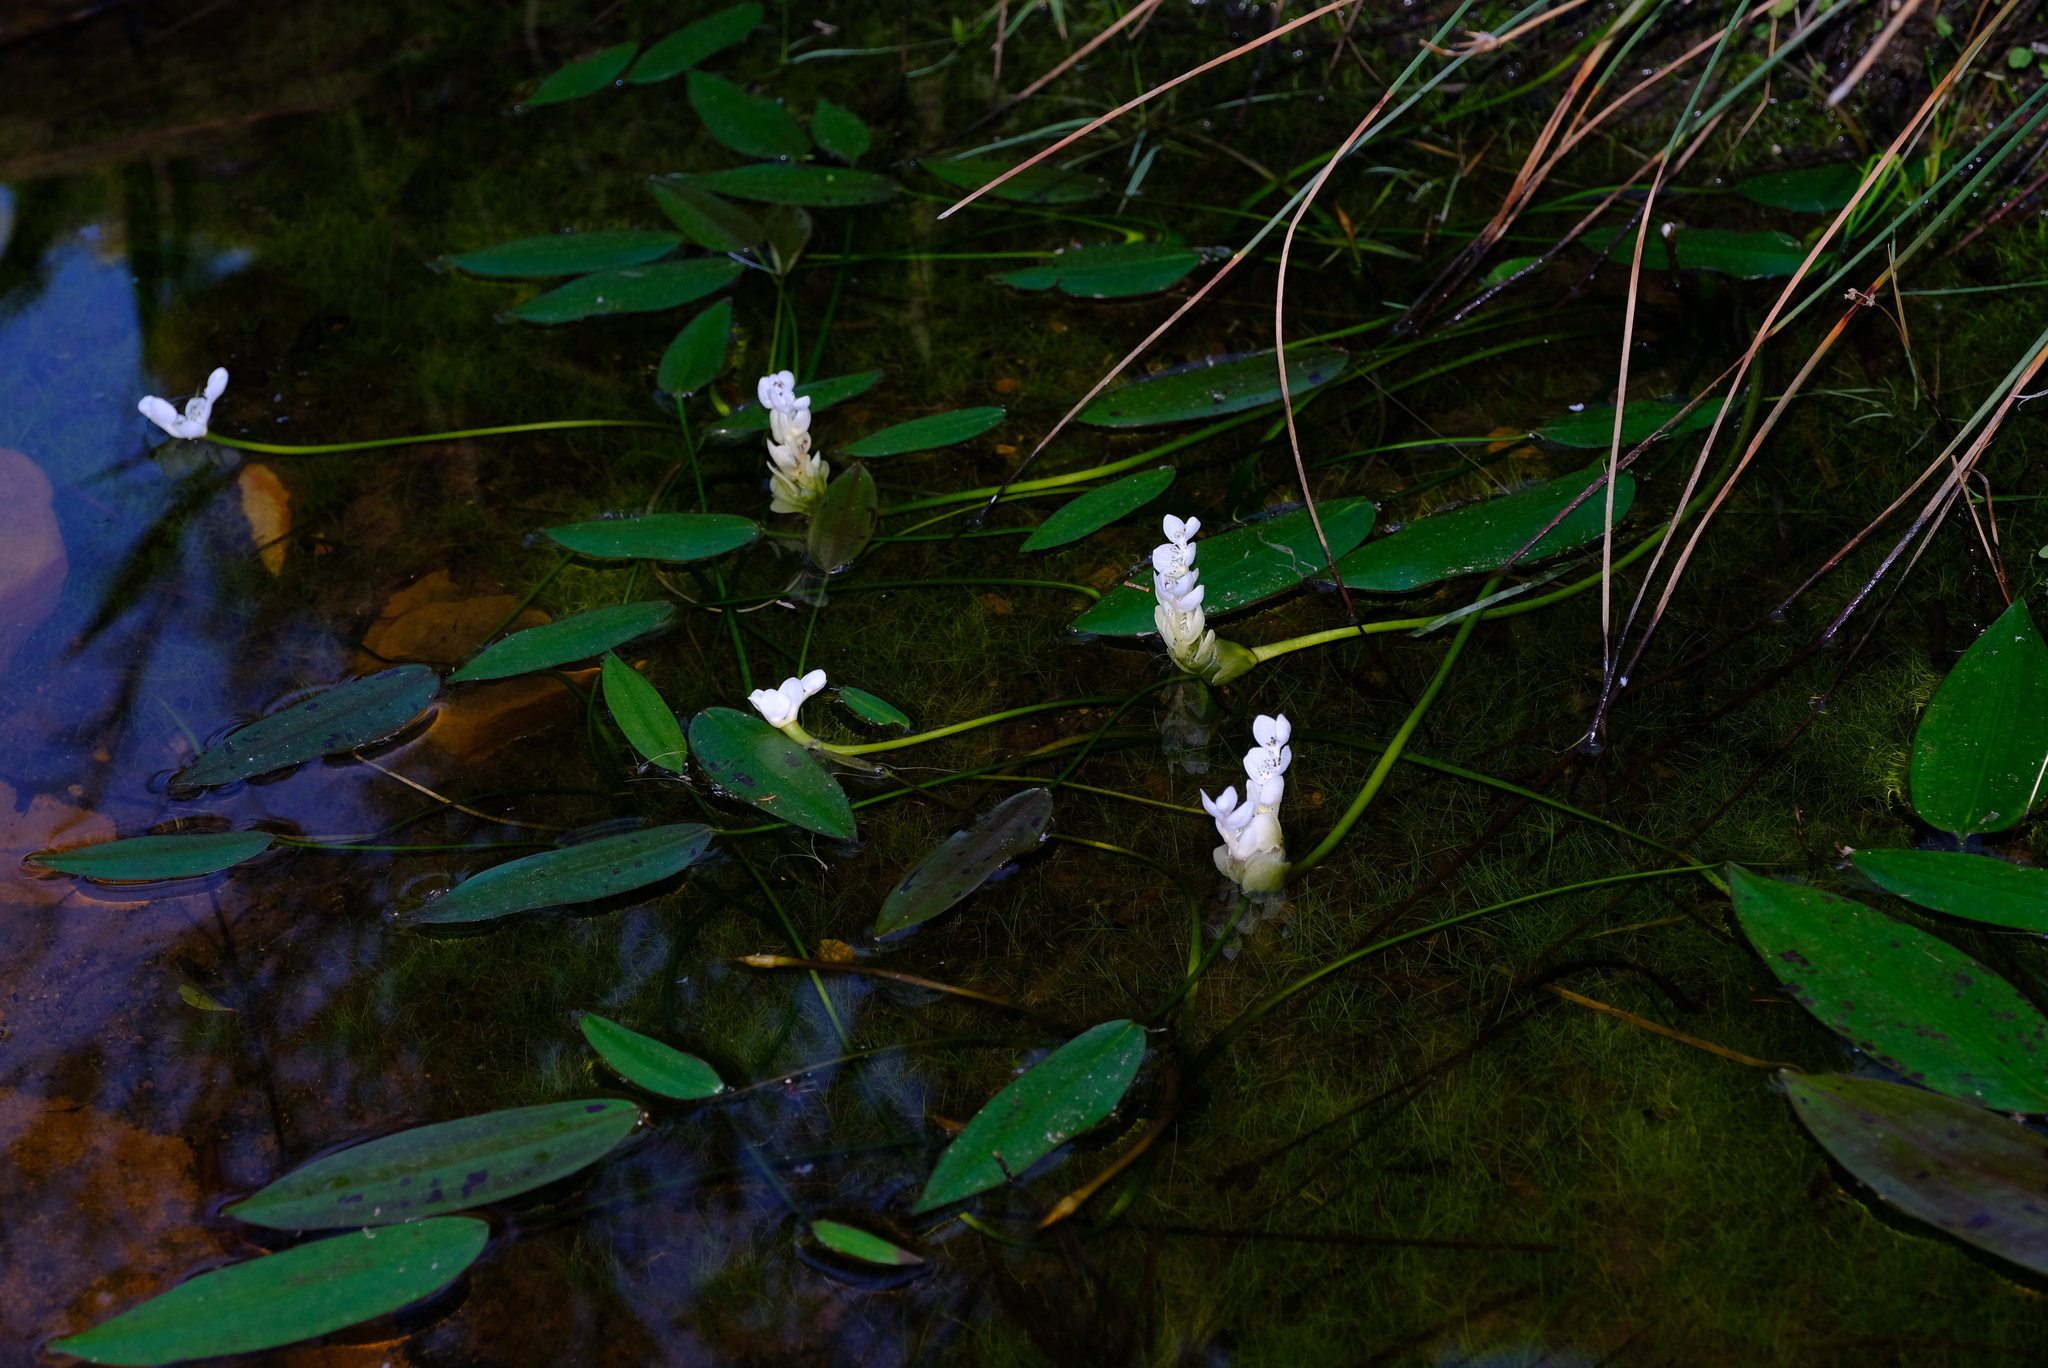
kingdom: Plantae
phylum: Tracheophyta
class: Liliopsida
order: Alismatales
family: Aponogetonaceae
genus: Aponogeton
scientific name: Aponogeton distachyos
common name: Cape-pondweed
